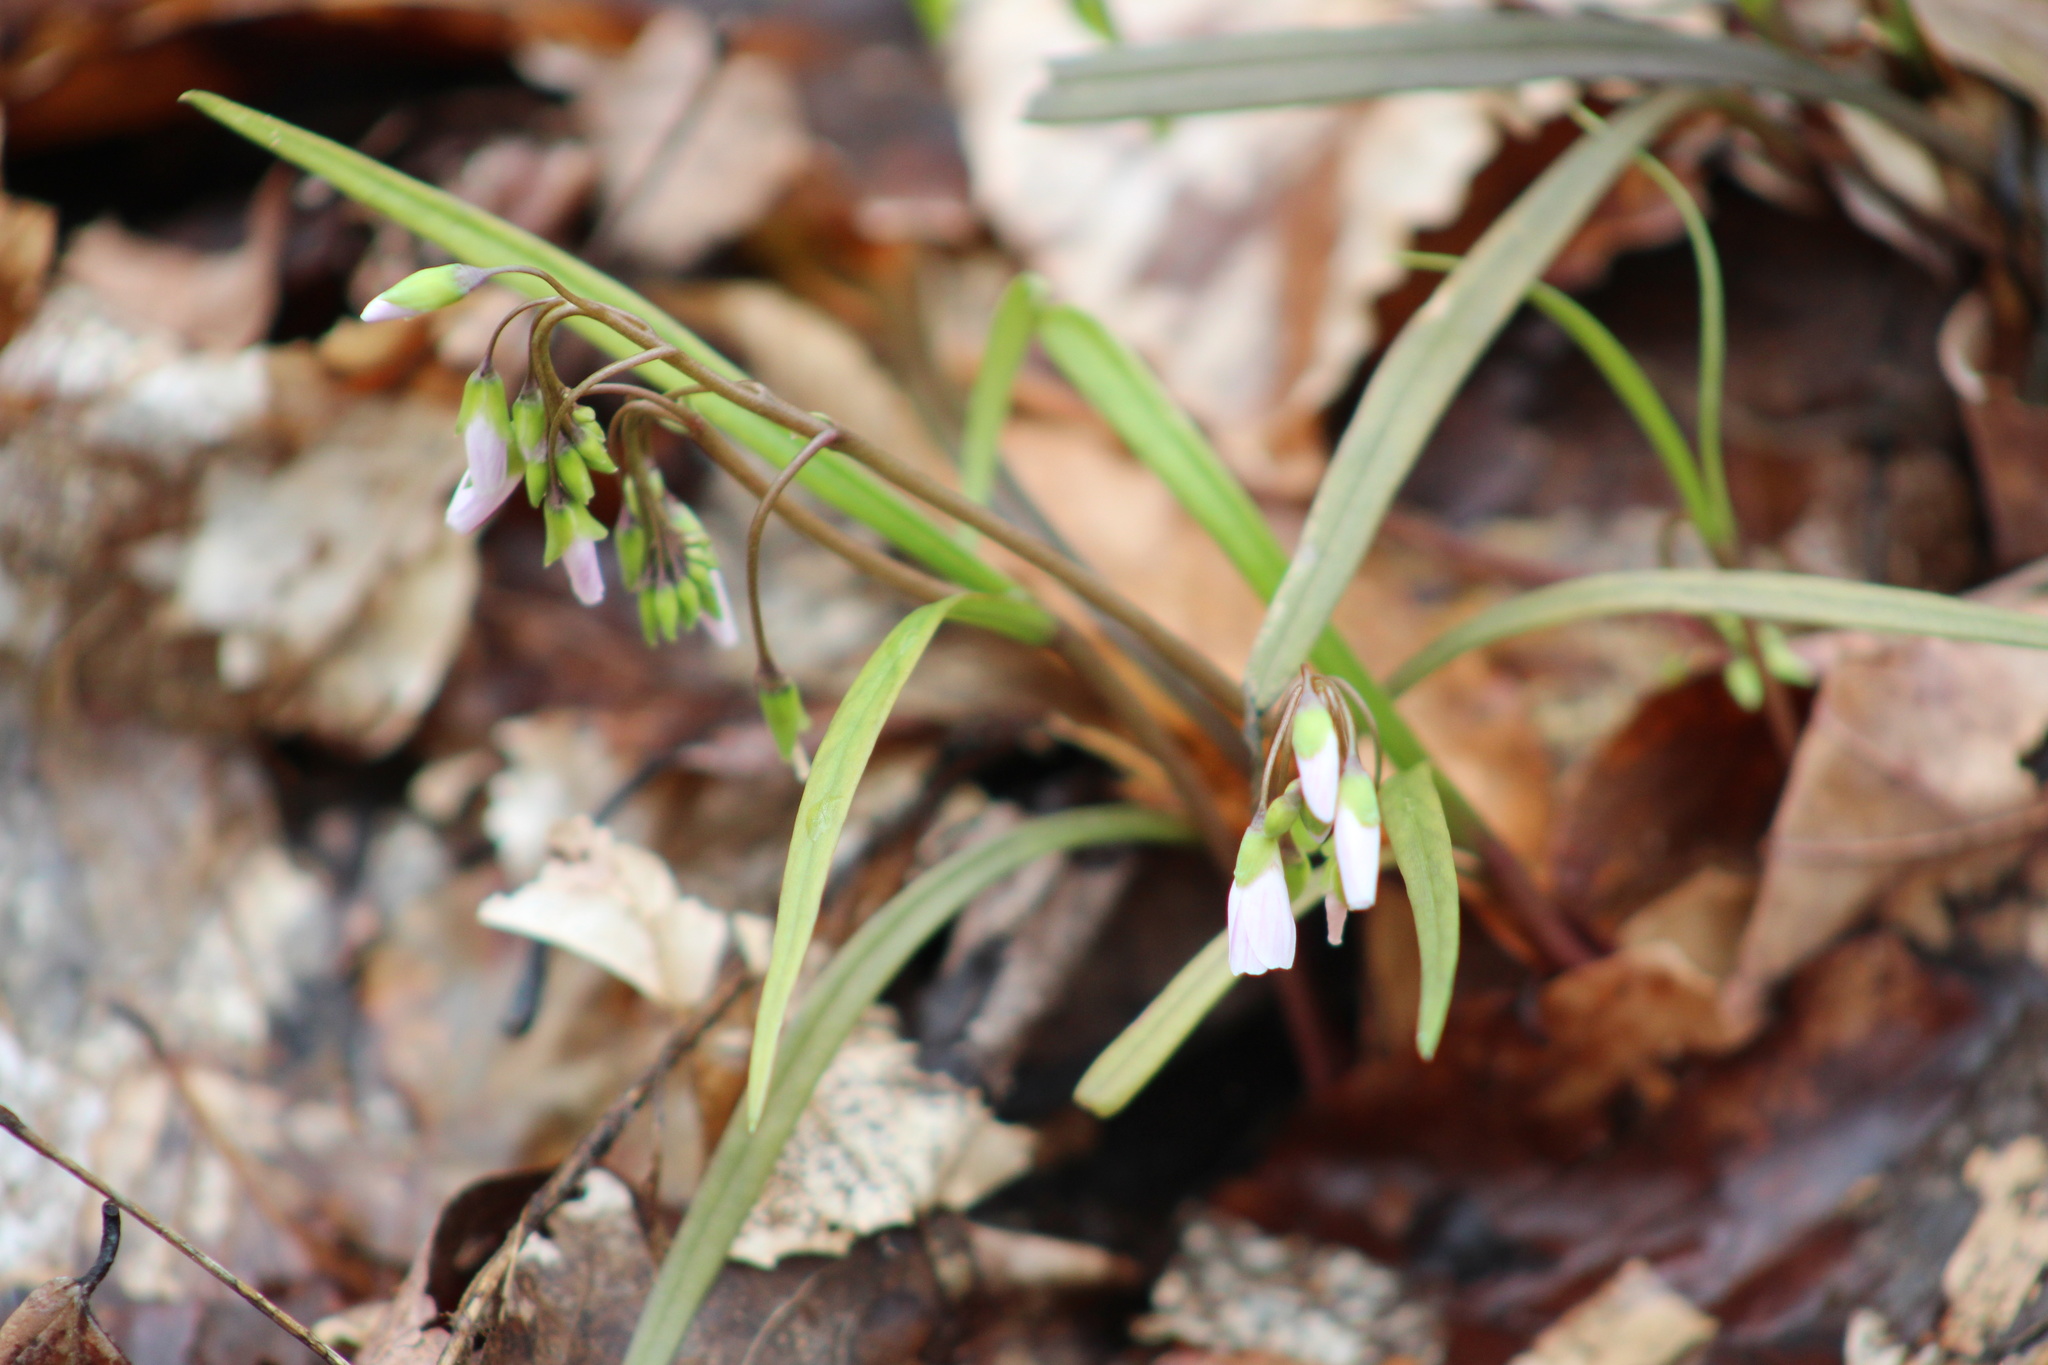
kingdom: Plantae
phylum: Tracheophyta
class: Magnoliopsida
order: Caryophyllales
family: Montiaceae
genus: Claytonia
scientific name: Claytonia virginica
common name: Virginia springbeauty
